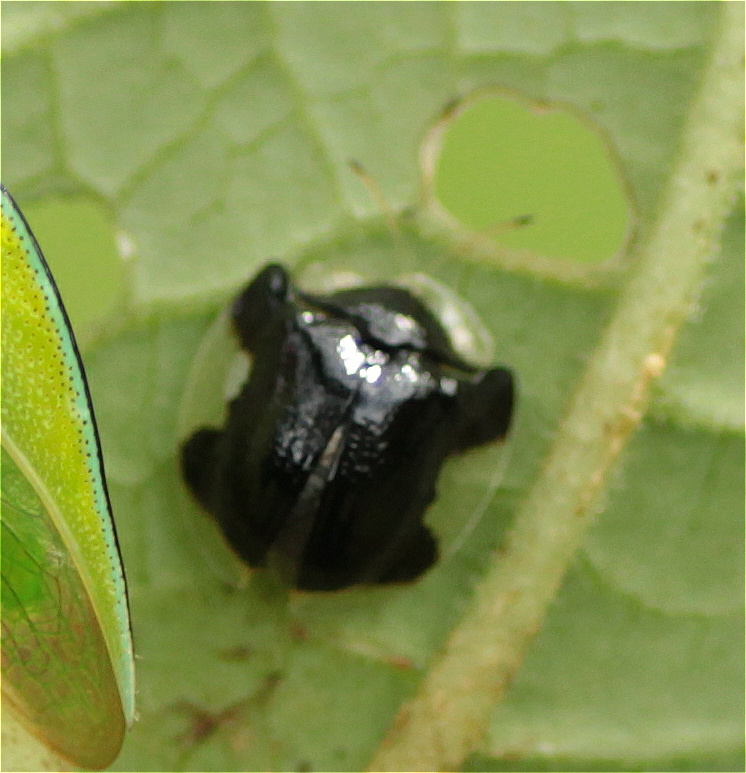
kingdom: Animalia
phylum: Arthropoda
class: Insecta
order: Coleoptera
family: Chrysomelidae
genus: Microctenochira
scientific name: Microctenochira diabolica
